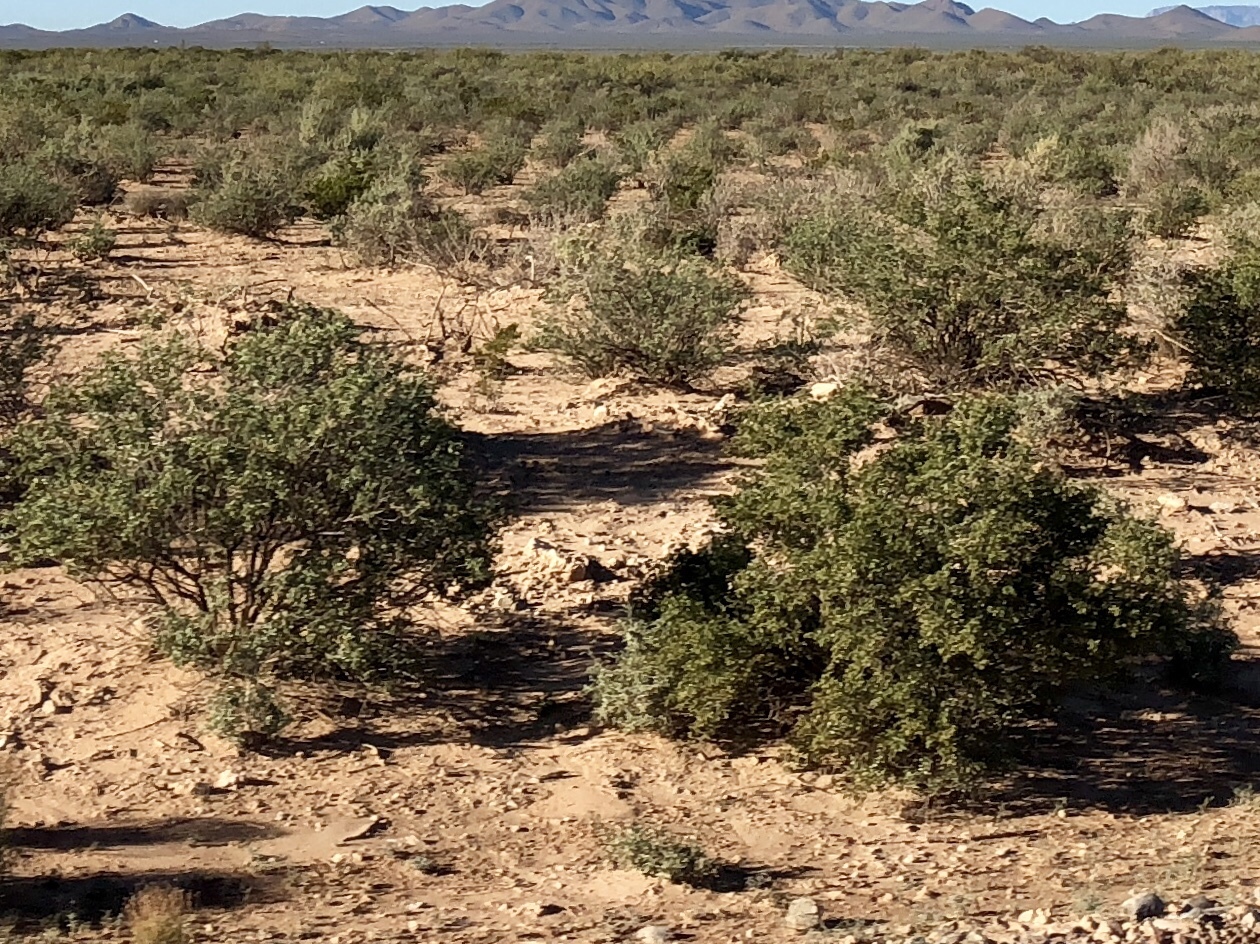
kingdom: Plantae
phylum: Tracheophyta
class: Magnoliopsida
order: Zygophyllales
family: Zygophyllaceae
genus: Larrea
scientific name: Larrea tridentata
